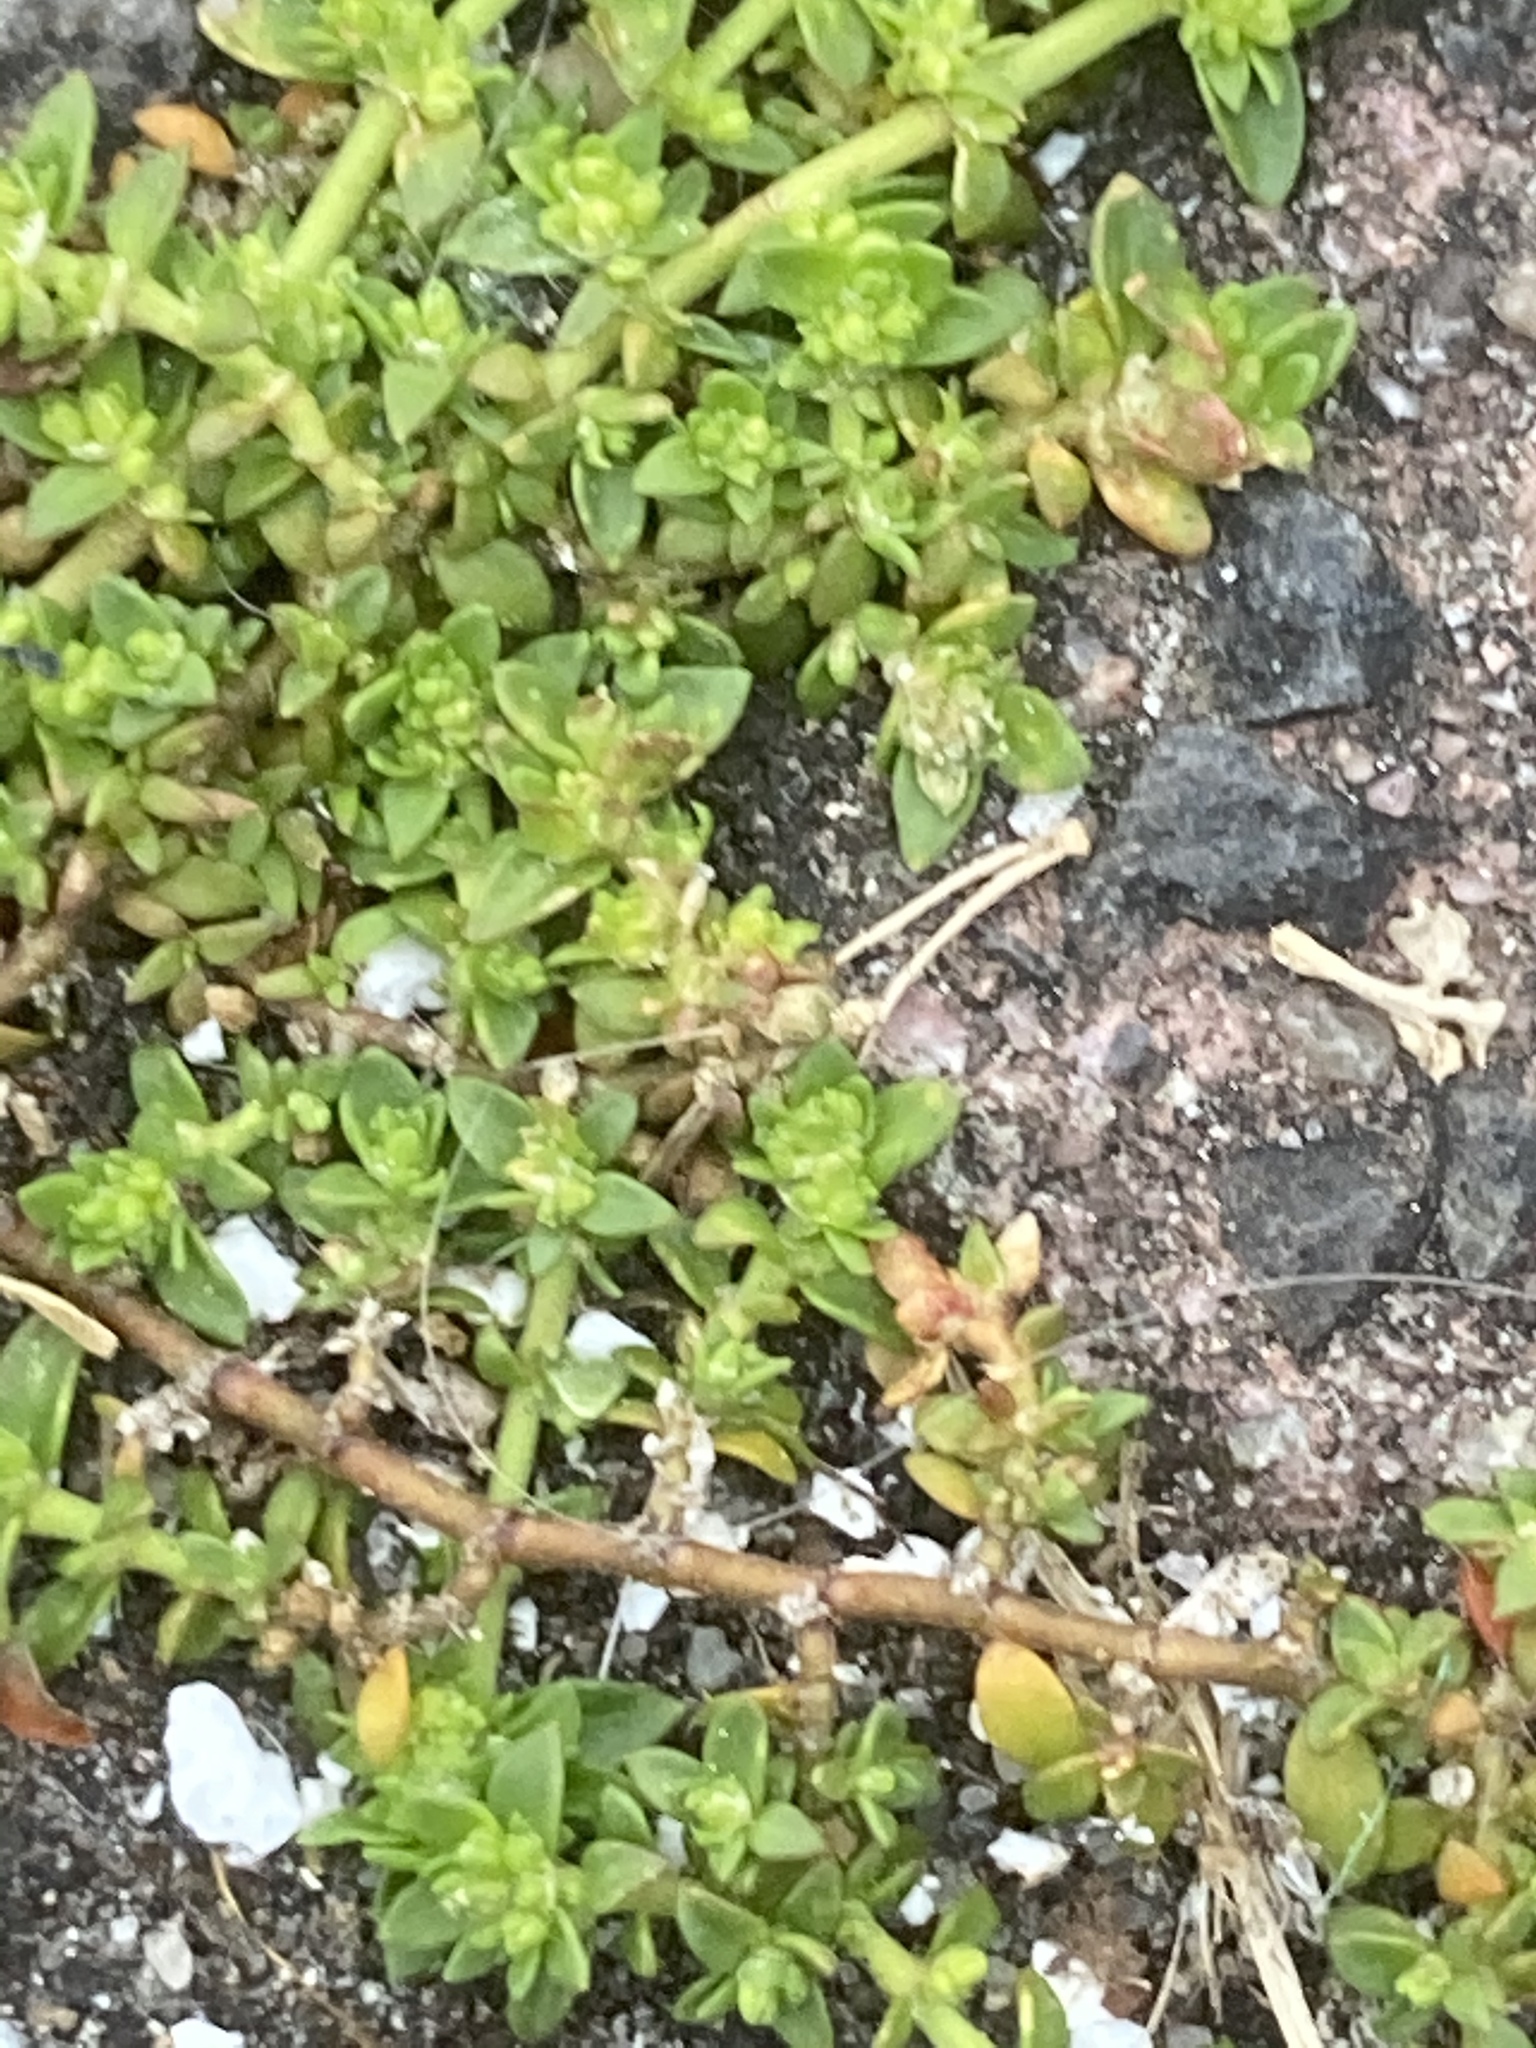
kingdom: Plantae
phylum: Tracheophyta
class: Magnoliopsida
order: Caryophyllales
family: Caryophyllaceae
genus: Herniaria
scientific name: Herniaria glabra
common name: Smooth rupturewort
